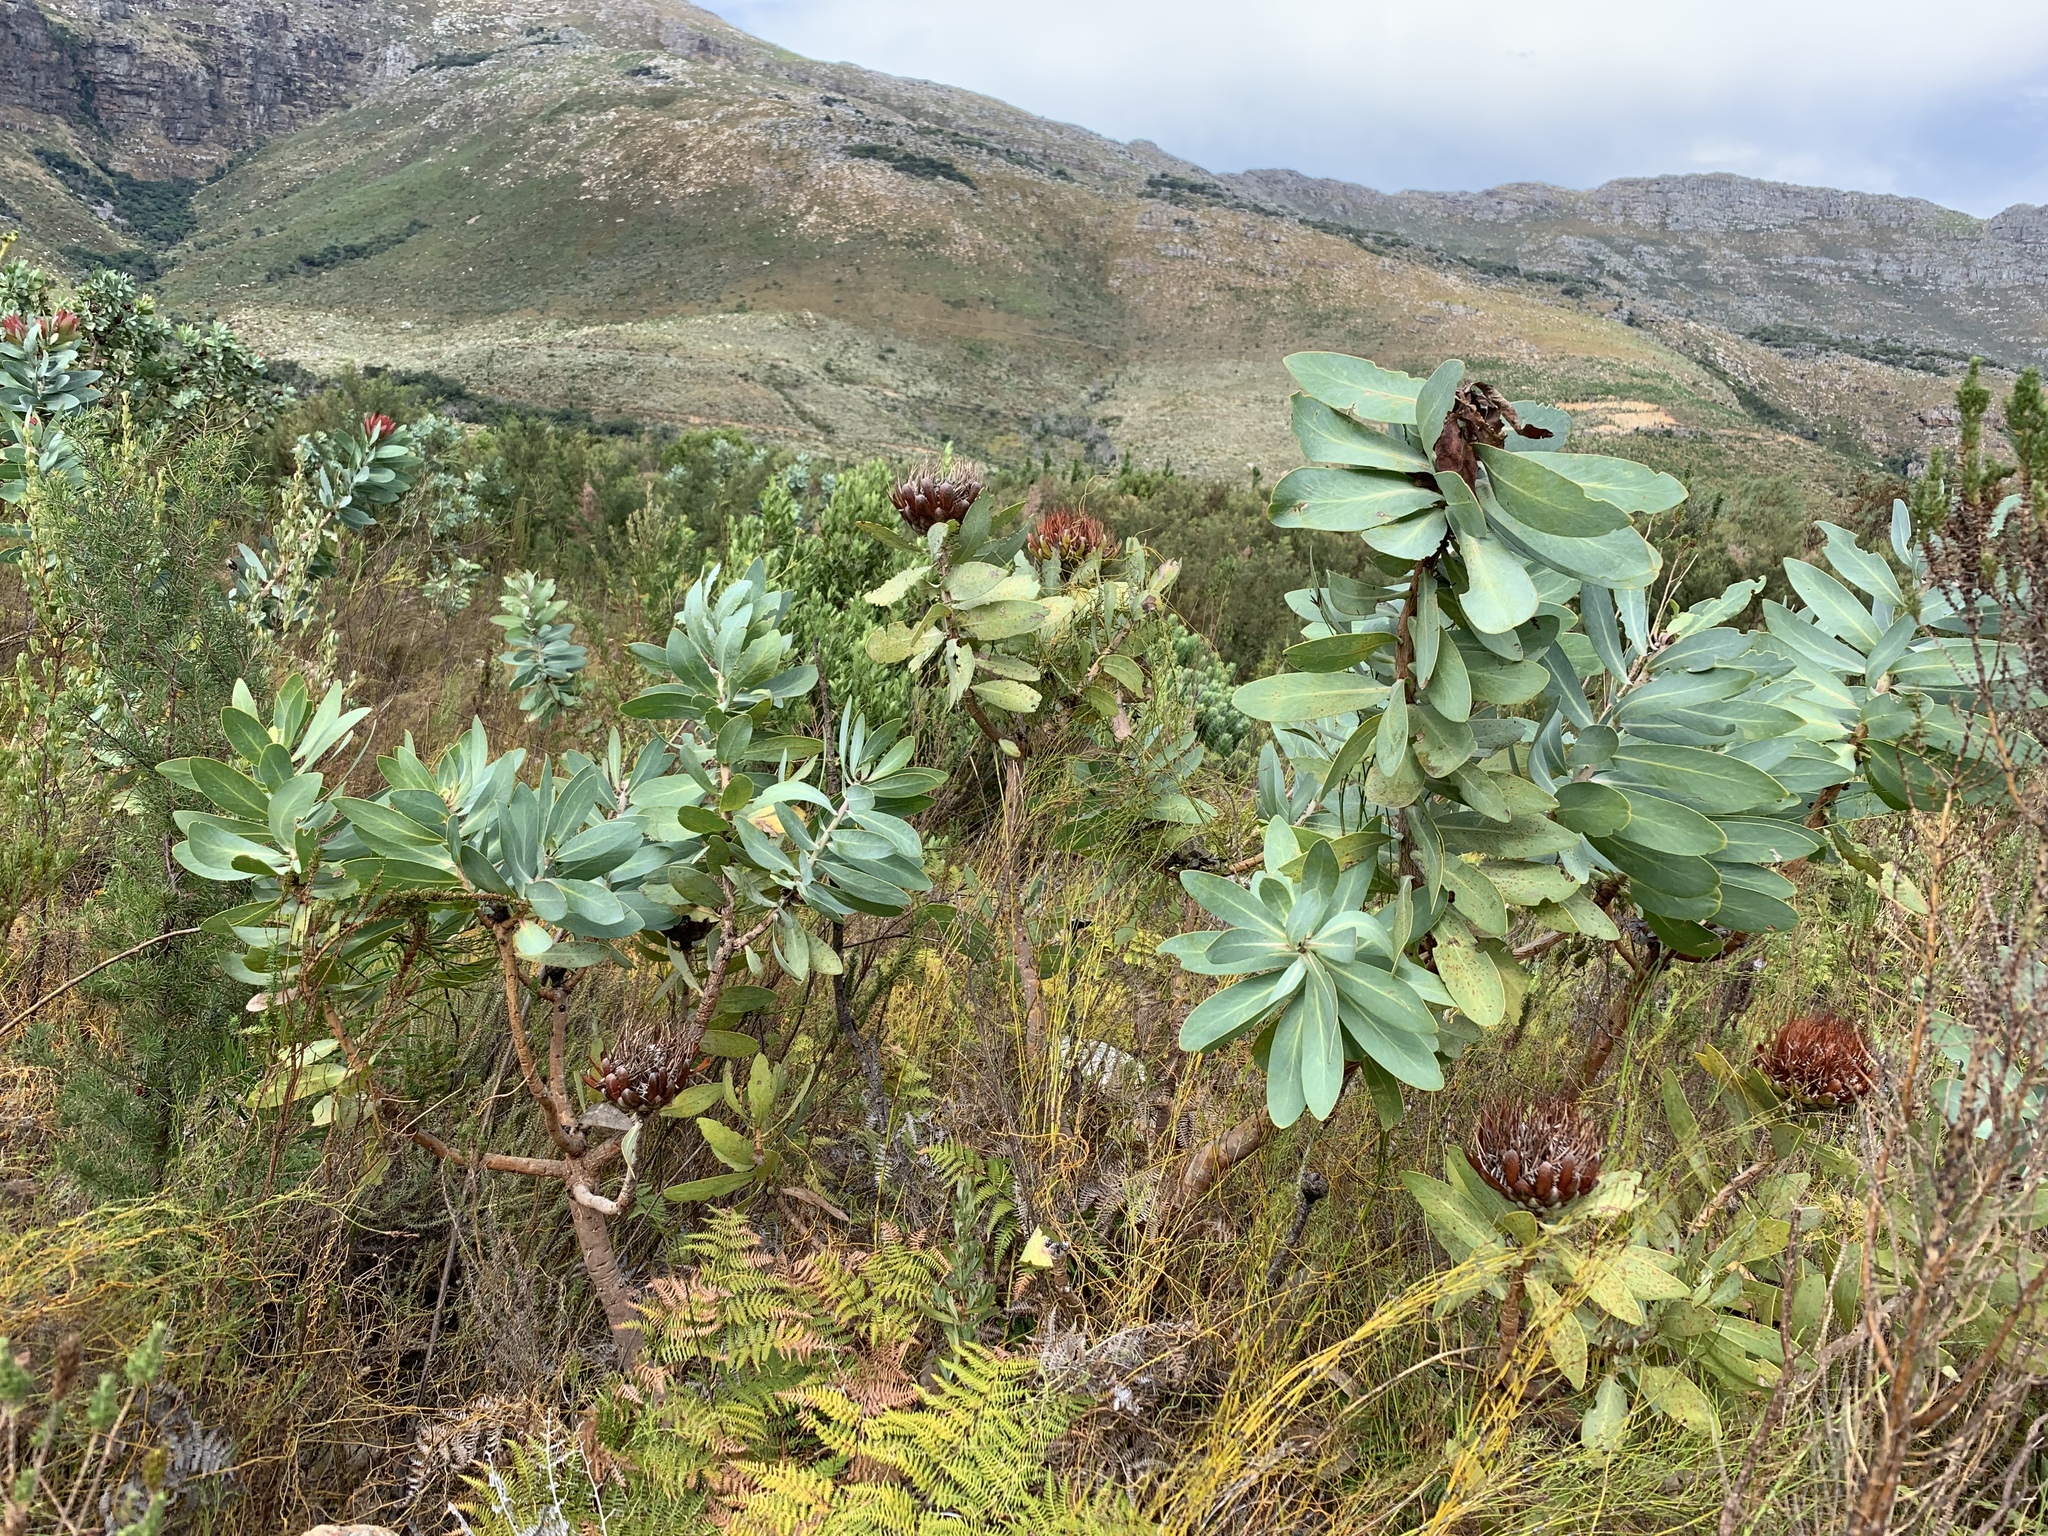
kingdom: Plantae
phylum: Tracheophyta
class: Magnoliopsida
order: Proteales
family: Proteaceae
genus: Protea
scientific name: Protea nitida
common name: Tree protea
